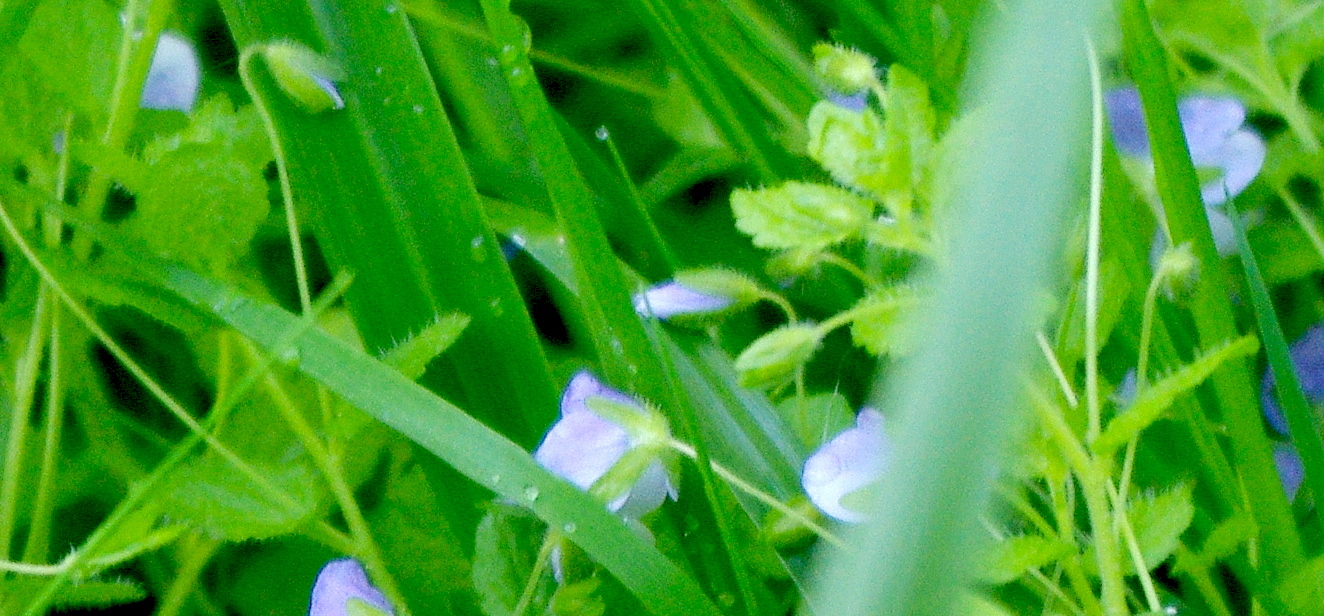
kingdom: Plantae
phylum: Tracheophyta
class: Magnoliopsida
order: Lamiales
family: Plantaginaceae
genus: Veronica
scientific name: Veronica filiformis
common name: Slender speedwell
